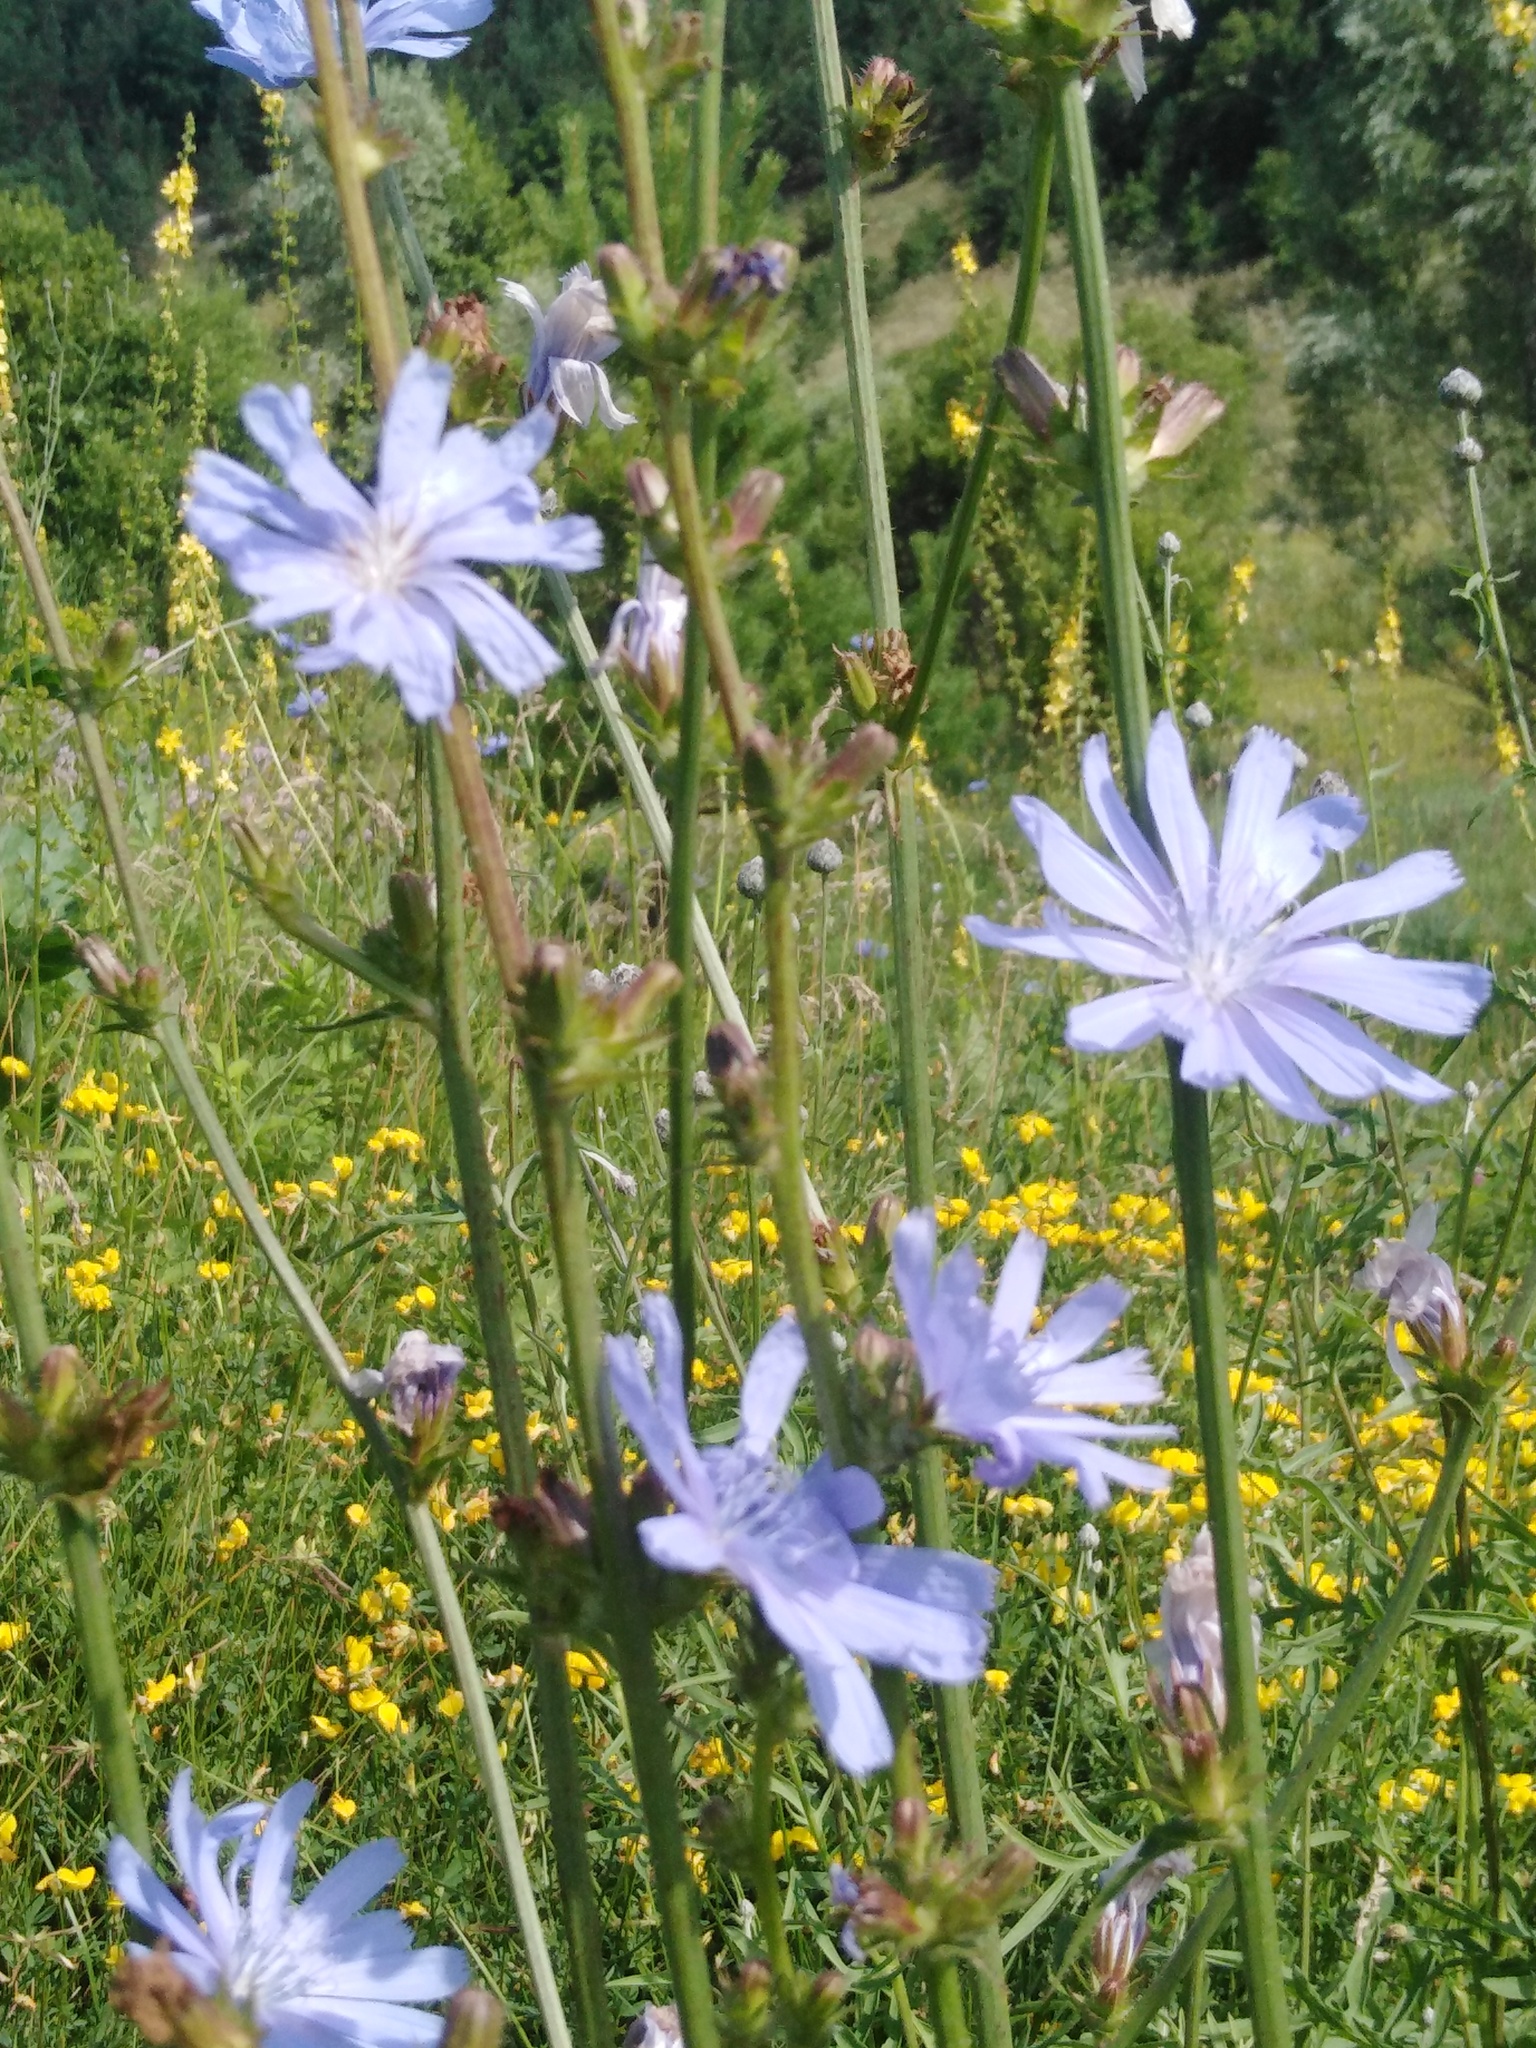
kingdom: Plantae
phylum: Tracheophyta
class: Magnoliopsida
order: Asterales
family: Asteraceae
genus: Cichorium
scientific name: Cichorium intybus
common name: Chicory
